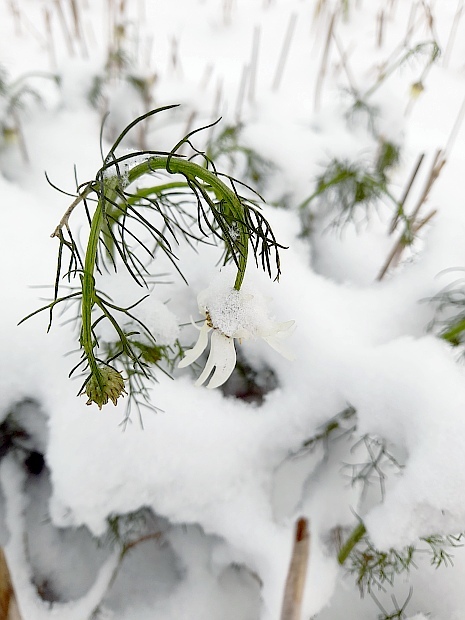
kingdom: Plantae
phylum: Tracheophyta
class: Magnoliopsida
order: Asterales
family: Asteraceae
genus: Tripleurospermum
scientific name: Tripleurospermum inodorum
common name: Scentless mayweed
